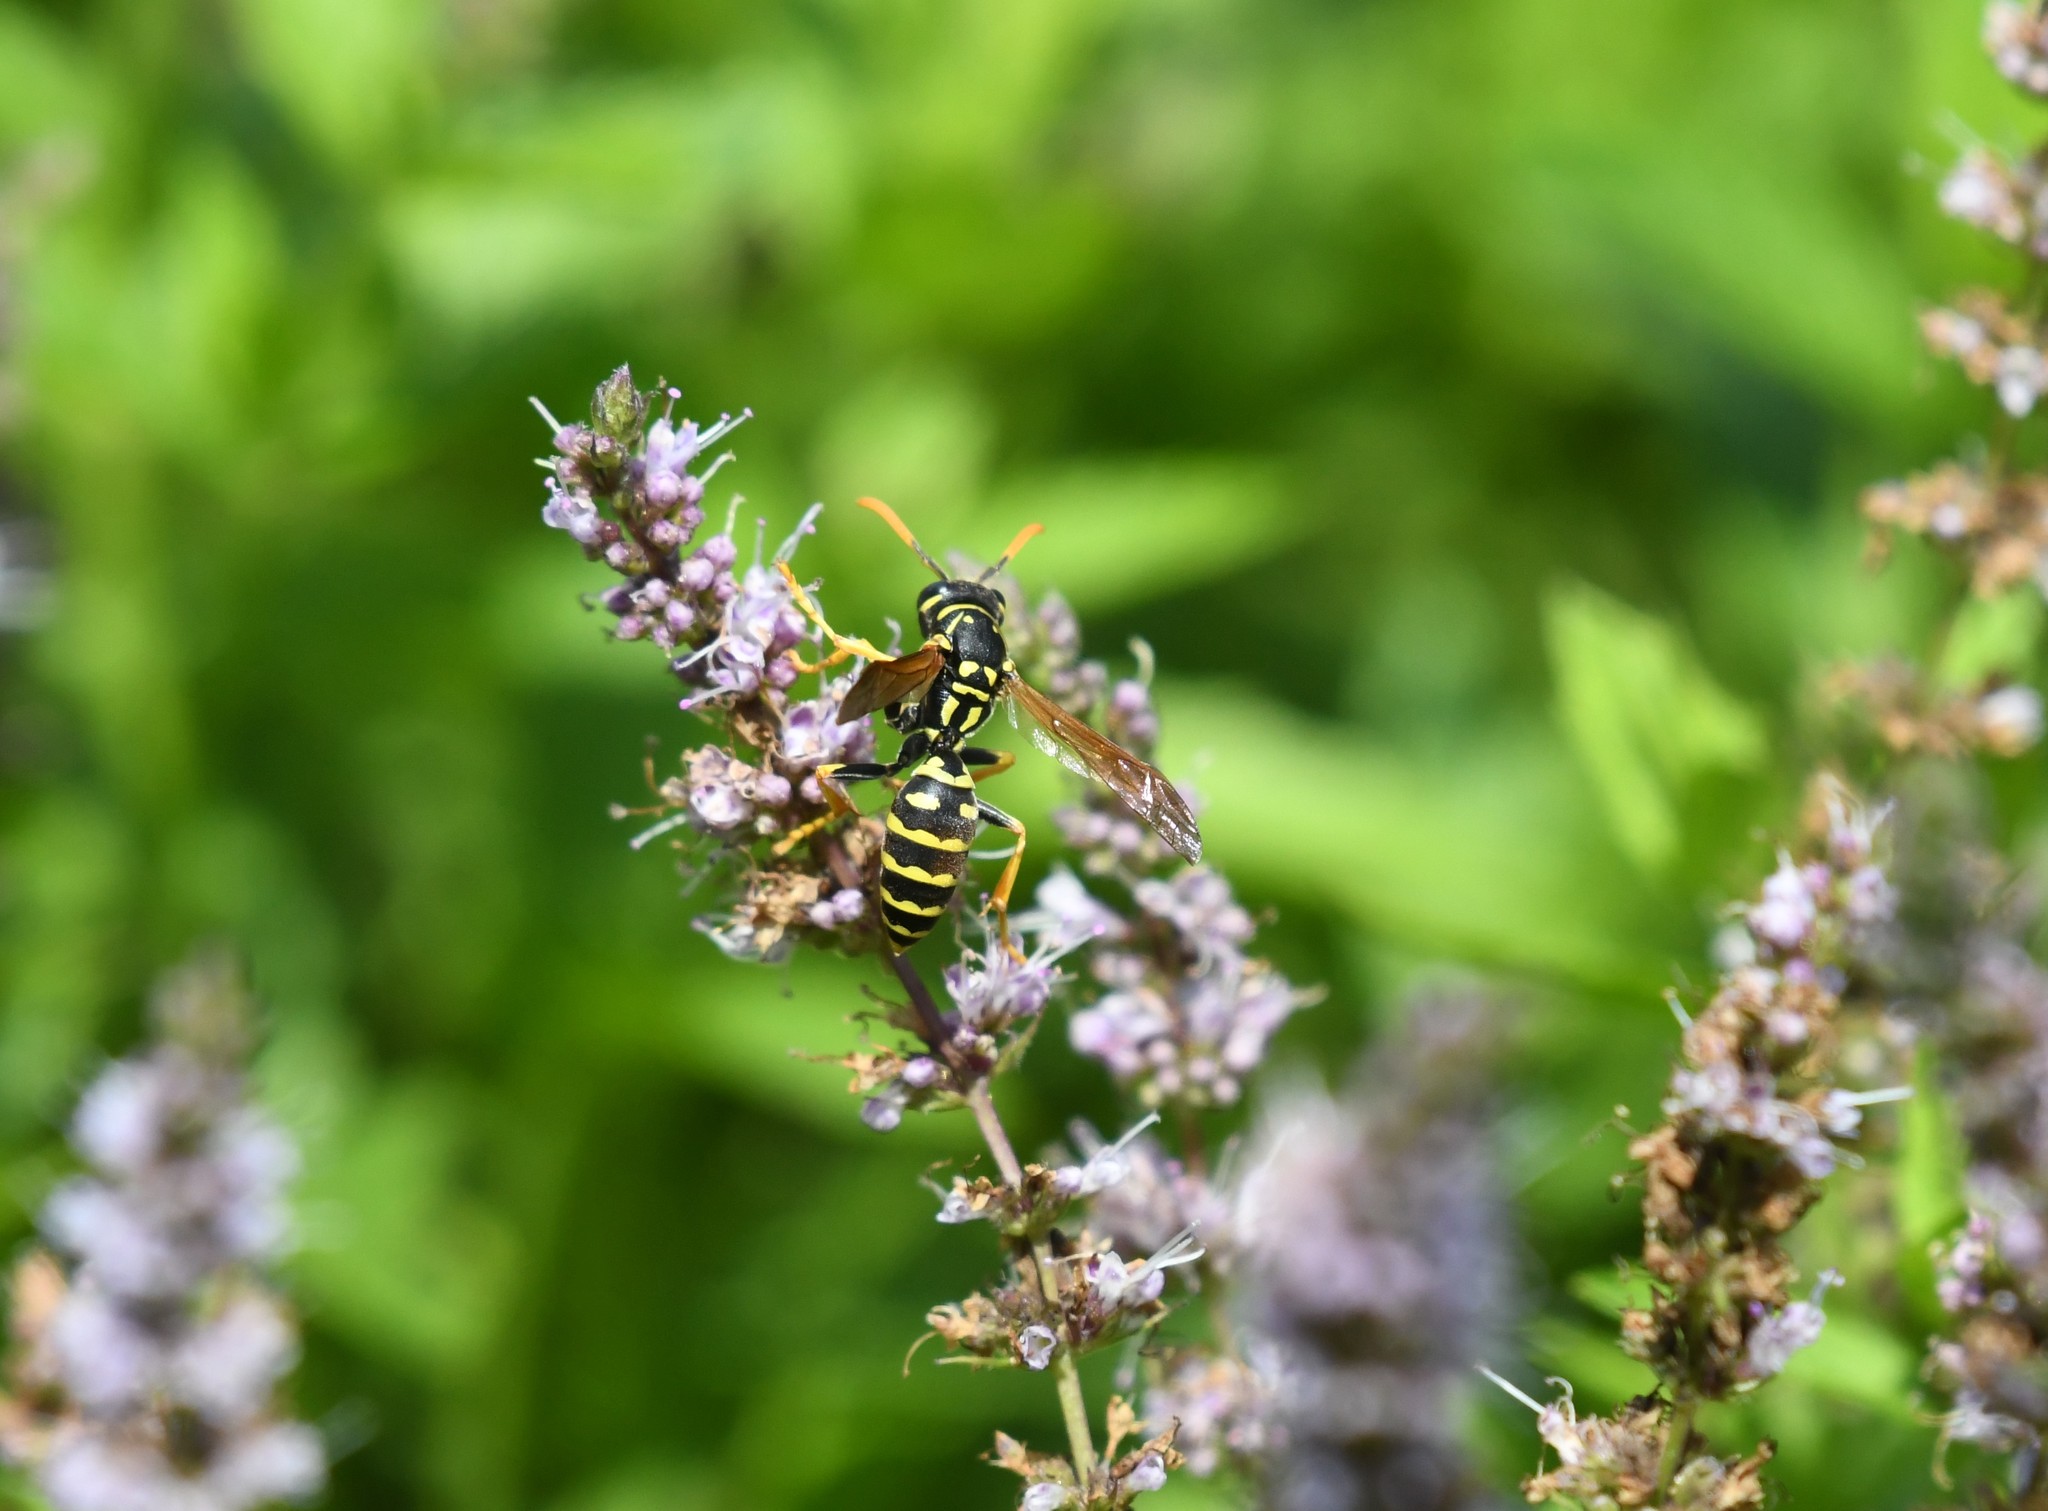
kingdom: Animalia
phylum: Arthropoda
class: Insecta
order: Hymenoptera
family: Eumenidae
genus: Polistes
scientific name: Polistes dominula
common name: Paper wasp
